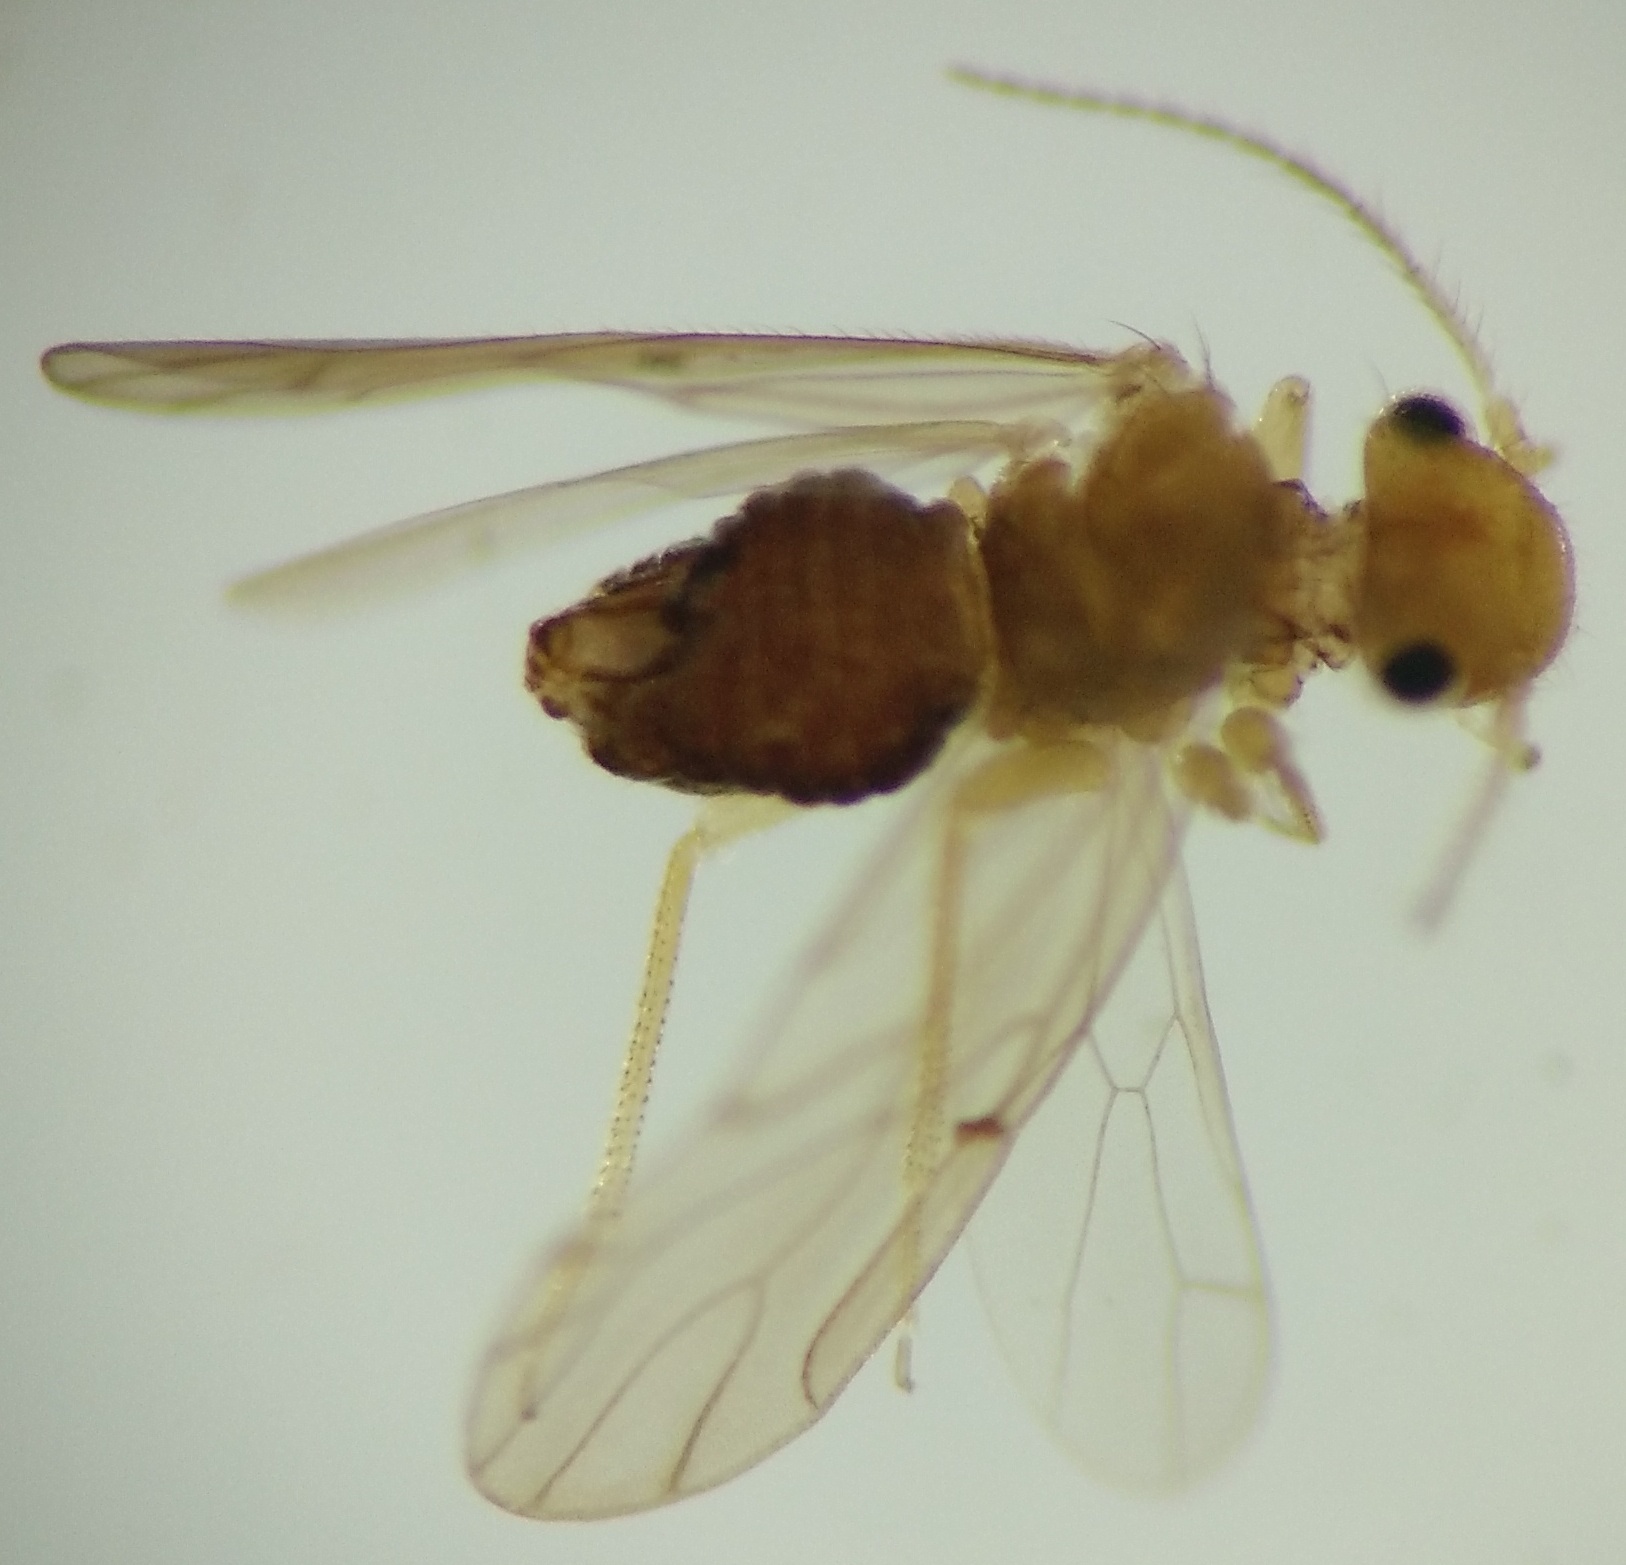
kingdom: Animalia
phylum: Arthropoda
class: Insecta
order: Psocodea
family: Ectopsocidae
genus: Ectopsocopsis
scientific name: Ectopsocopsis cryptomeriae
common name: Large-winged psocid
